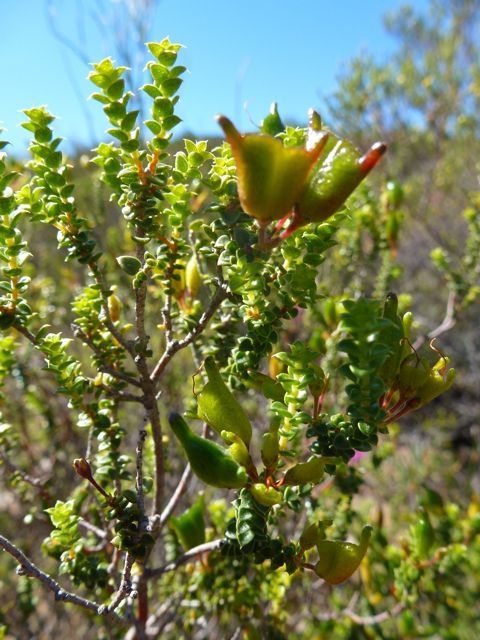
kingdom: Plantae
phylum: Tracheophyta
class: Magnoliopsida
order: Sapindales
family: Rutaceae
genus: Agathosma
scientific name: Agathosma recurvifolia
